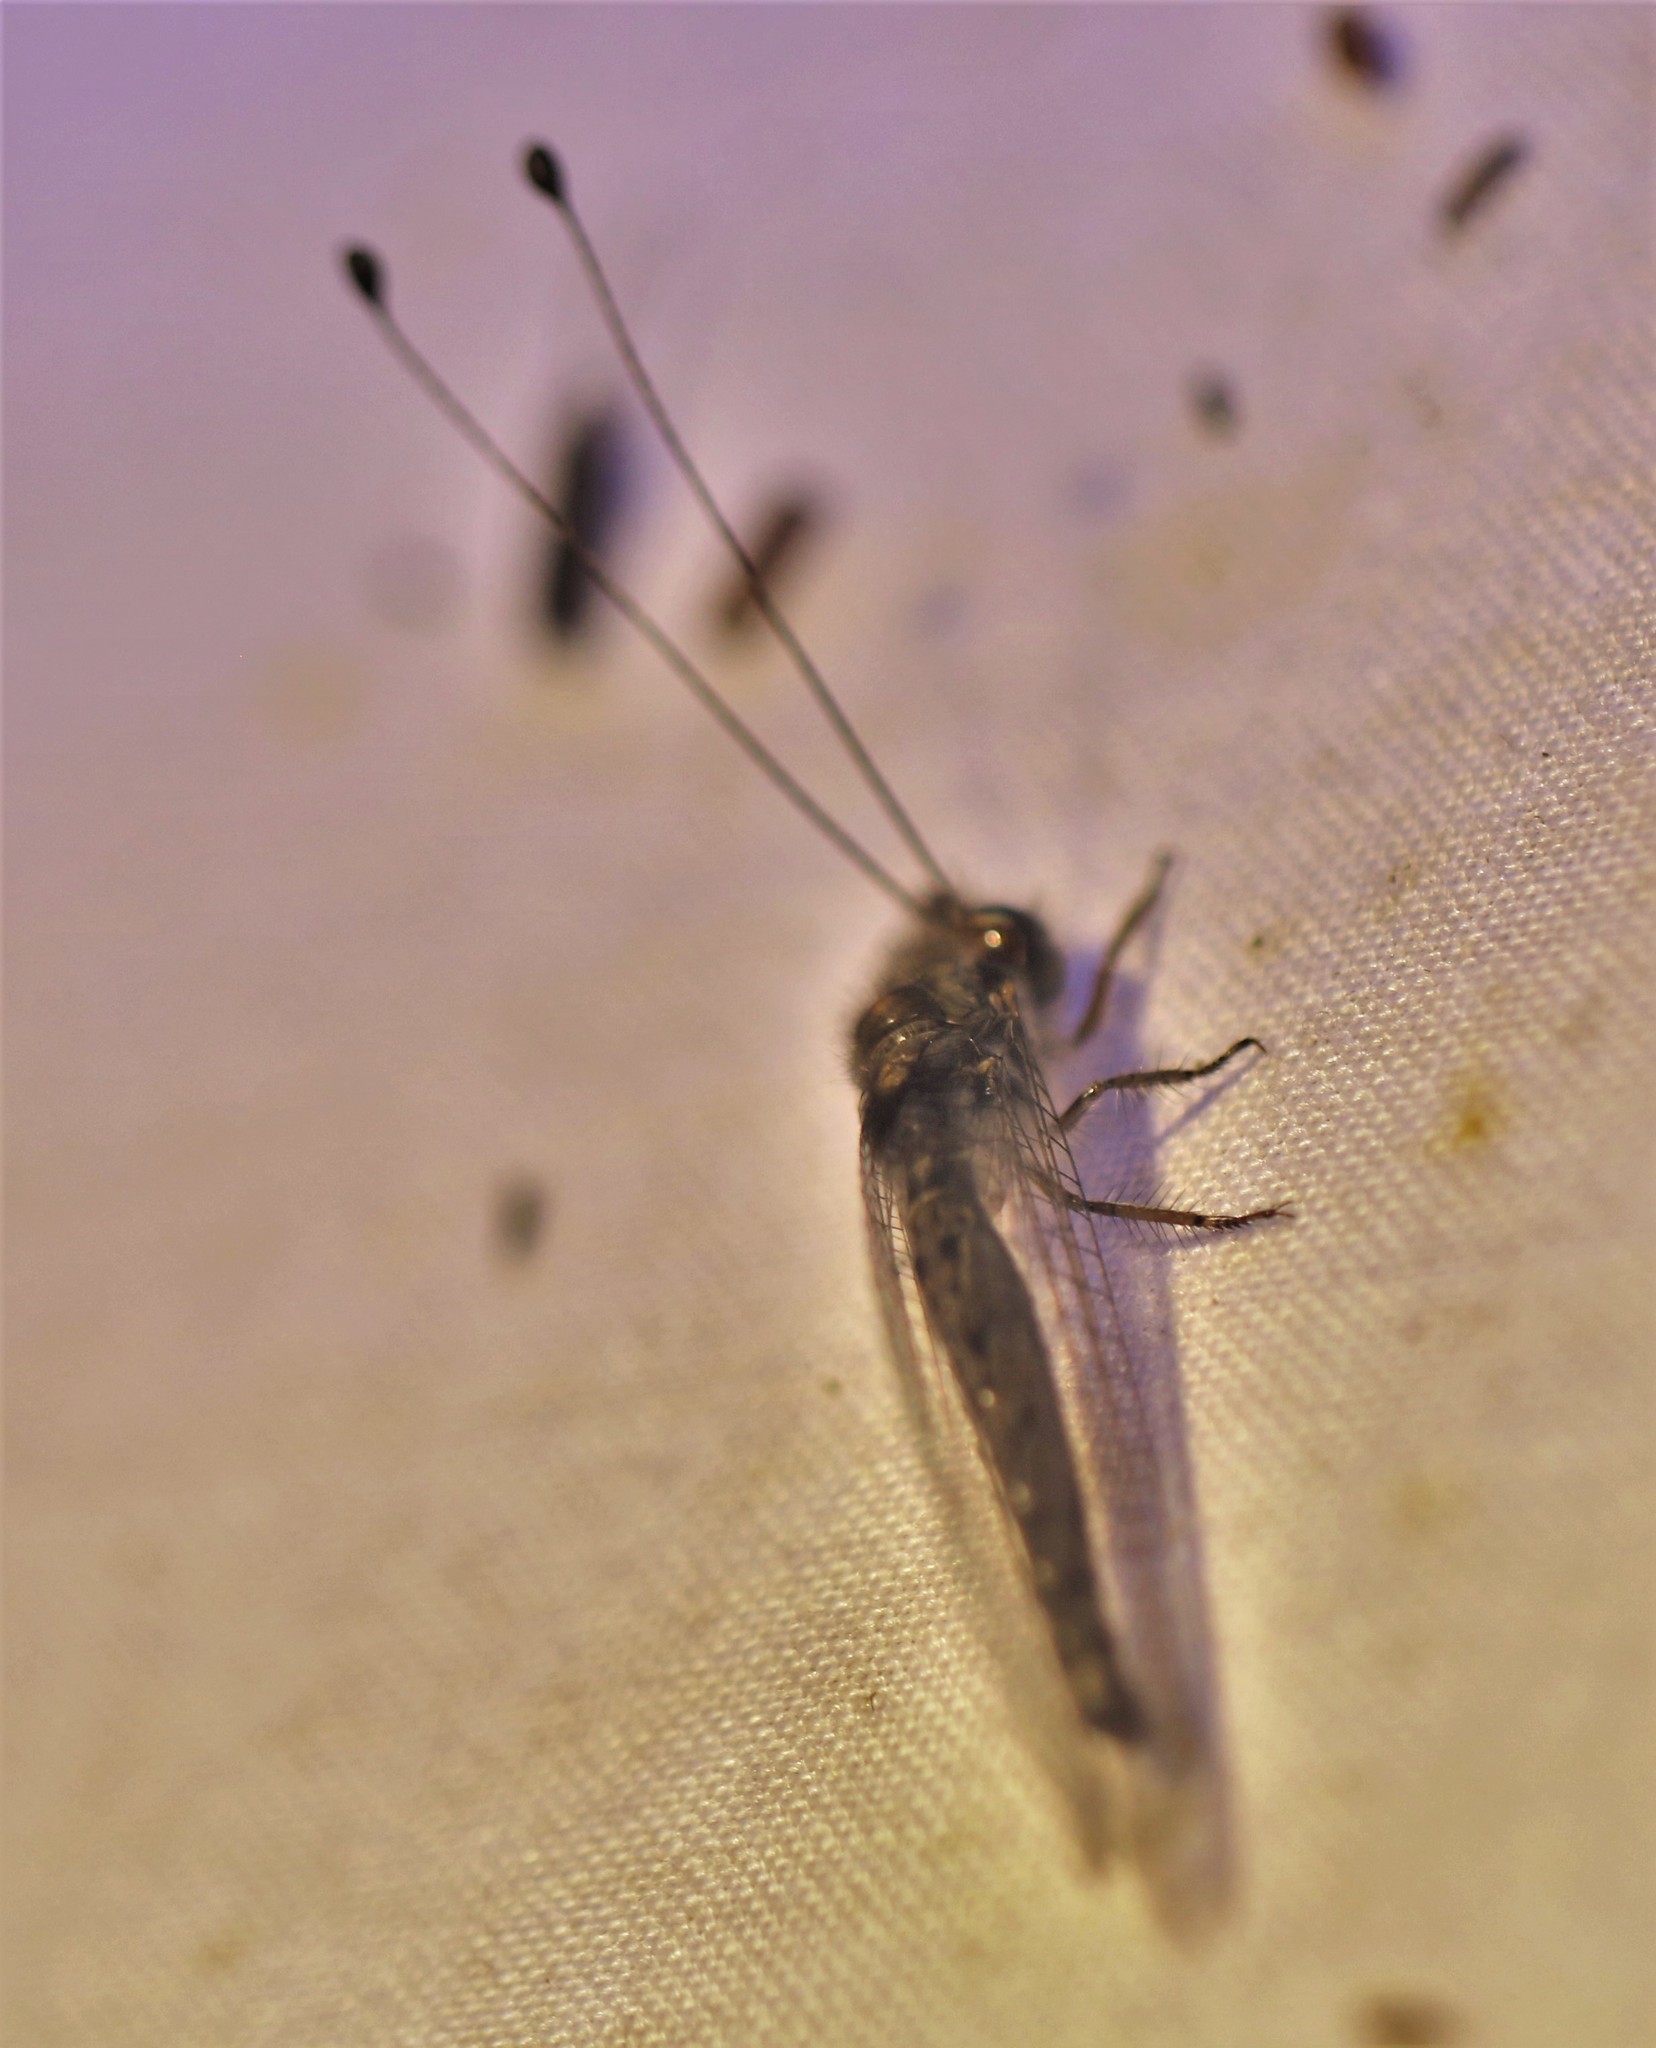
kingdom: Animalia
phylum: Arthropoda
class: Insecta
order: Neuroptera
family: Ascalaphidae
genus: Ululodes
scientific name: Ululodes cajennensis
